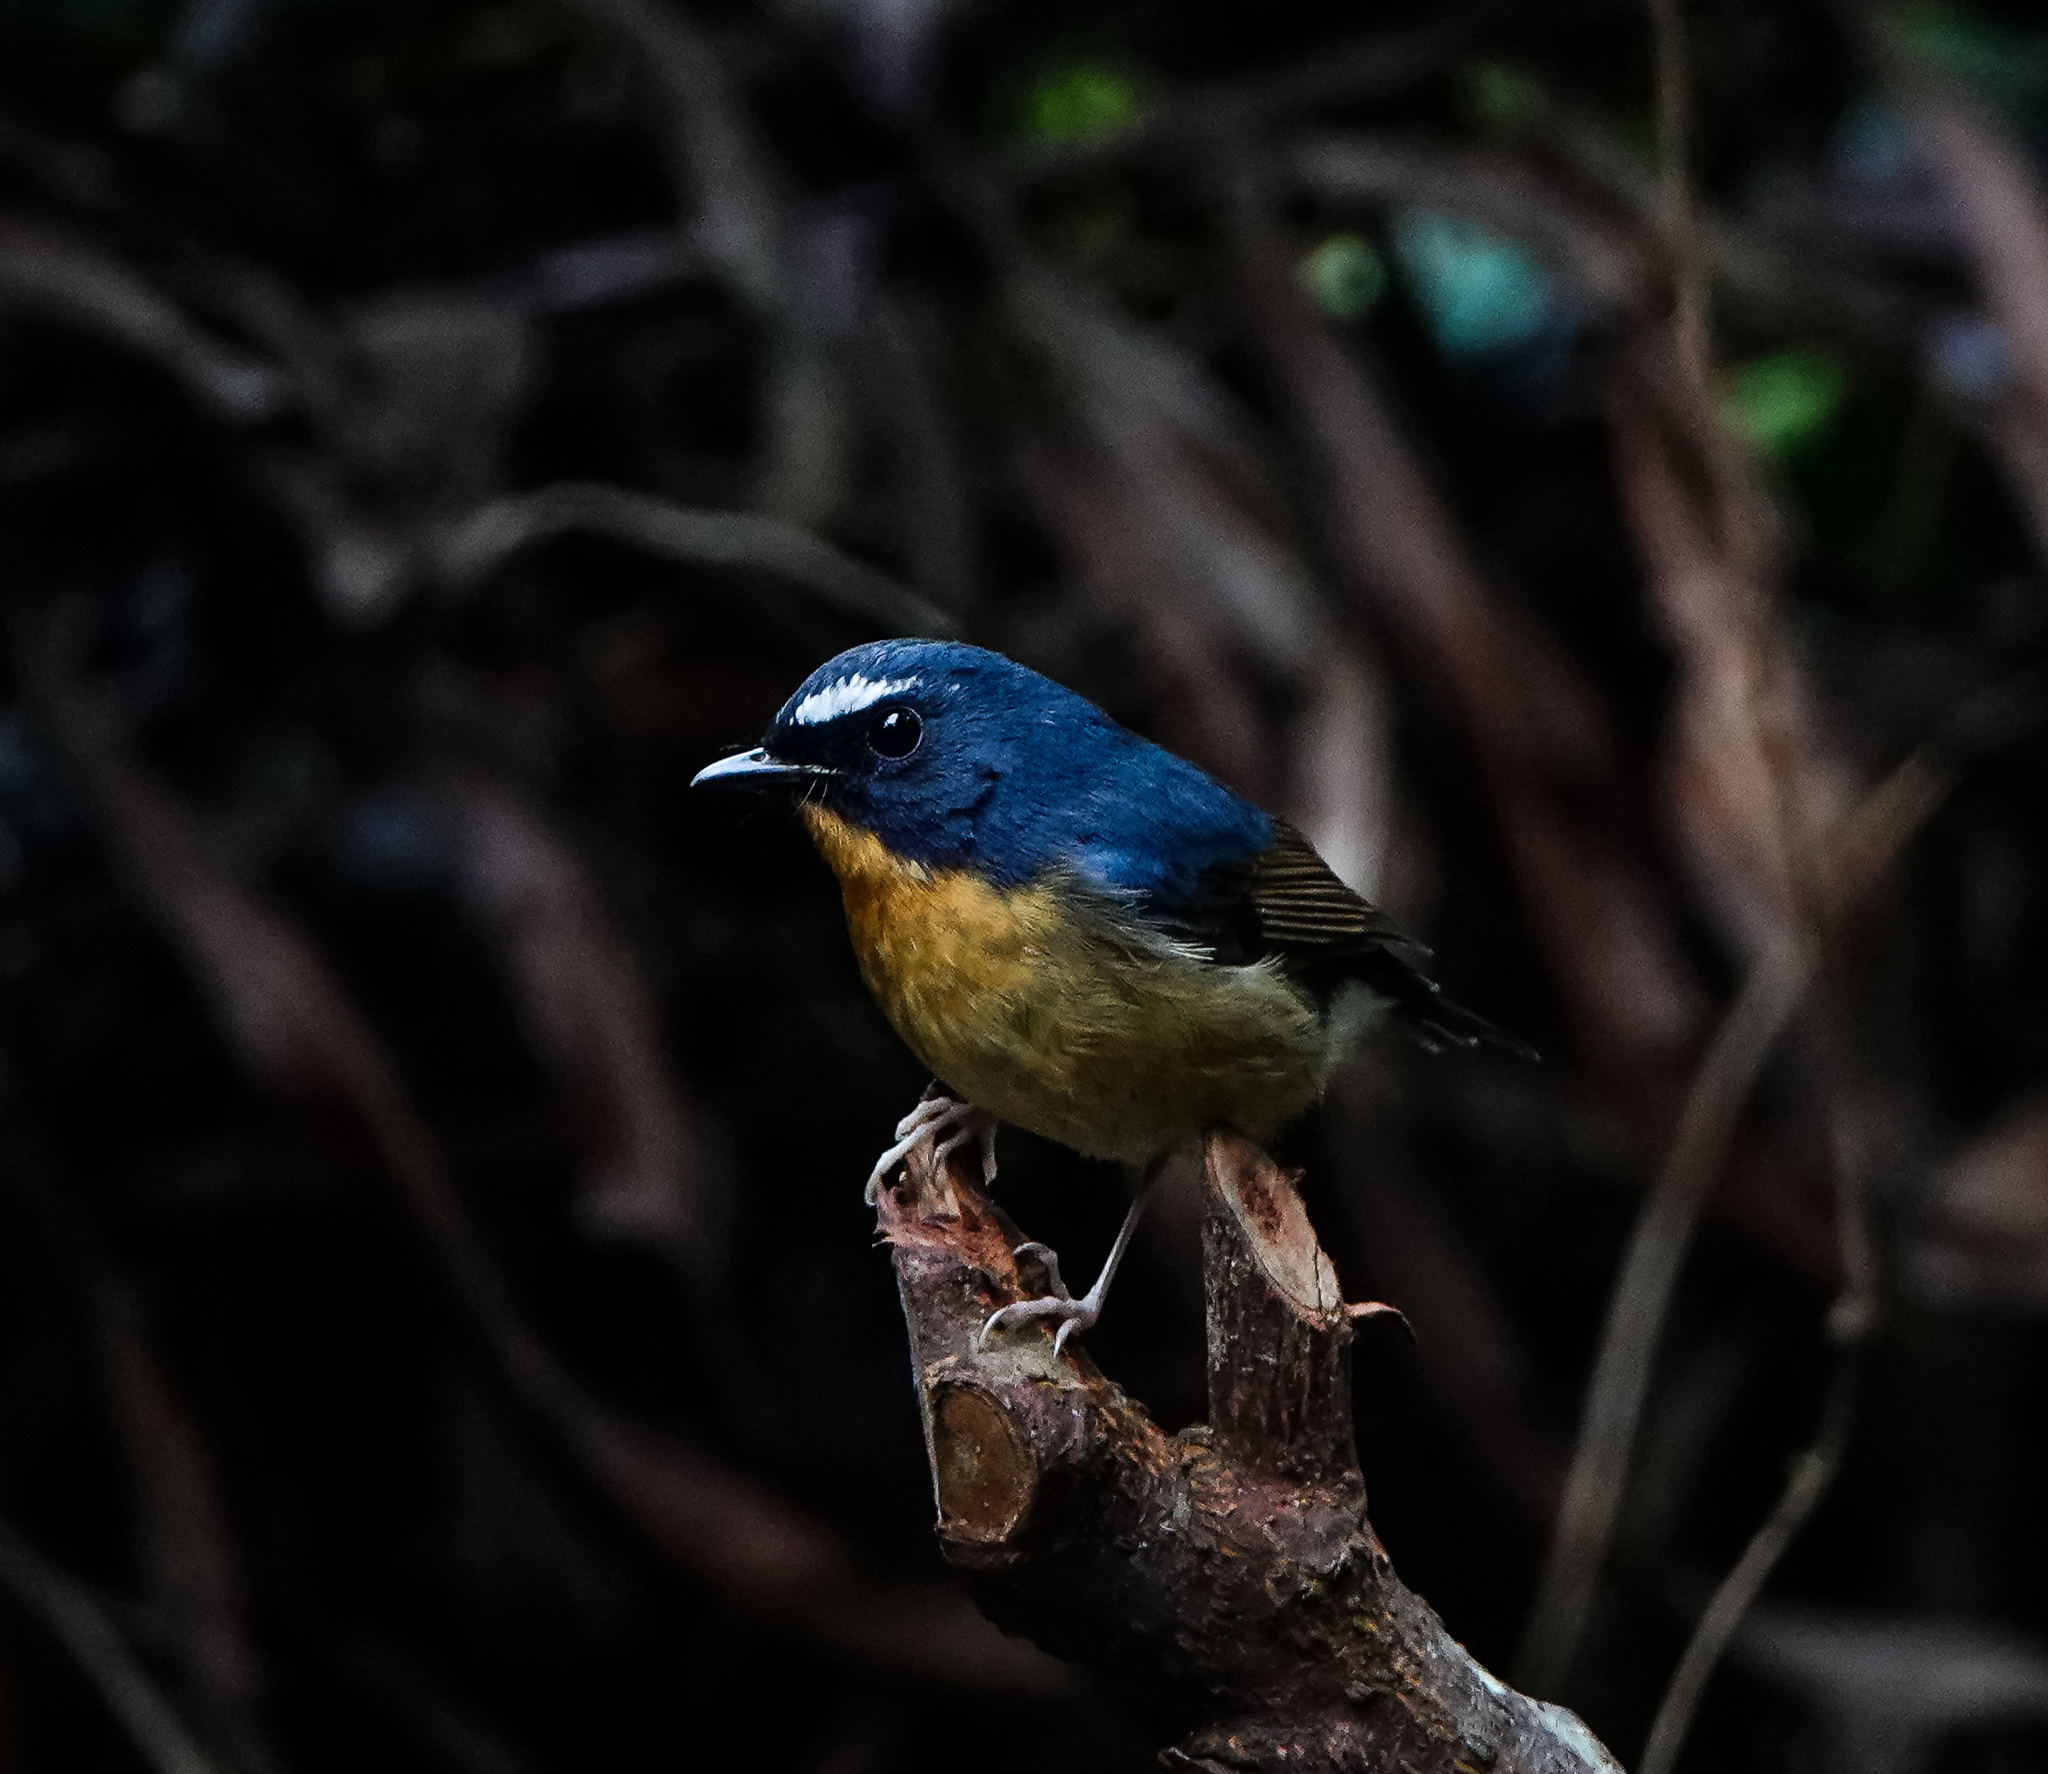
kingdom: Animalia
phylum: Chordata
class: Aves
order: Passeriformes
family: Muscicapidae
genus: Ficedula
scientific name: Ficedula hyperythra
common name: Snowy-browed flycatcher
